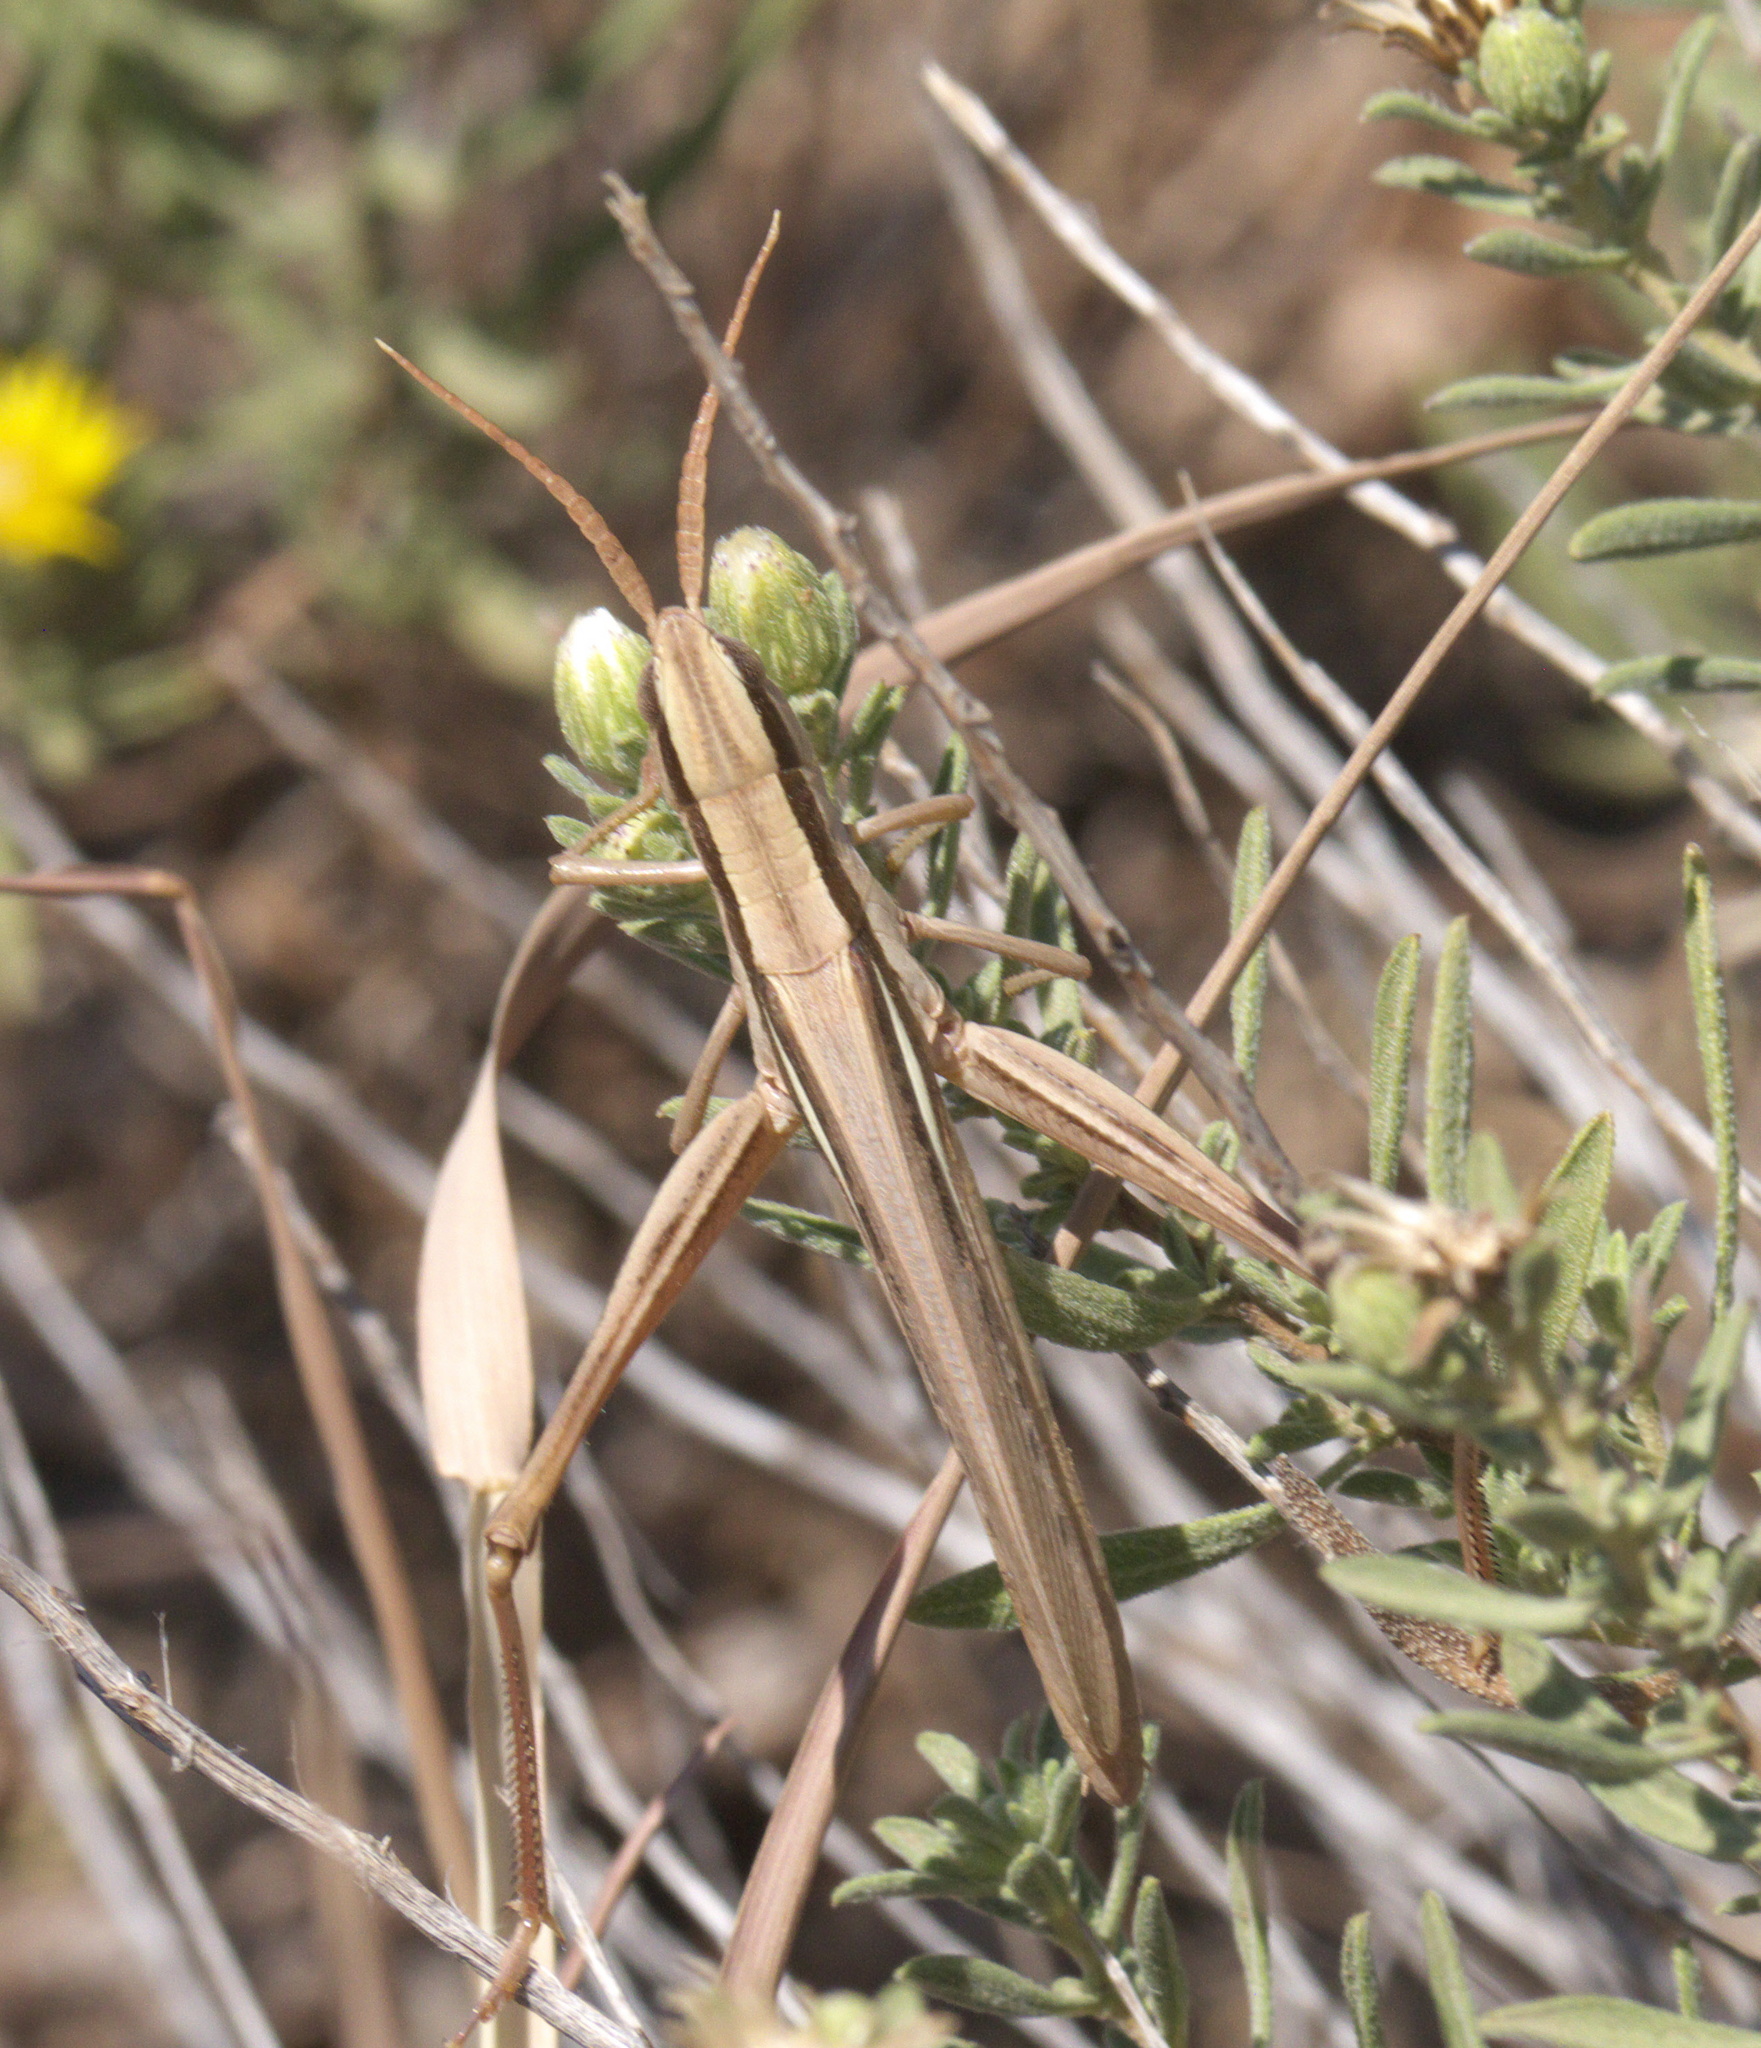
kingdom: Animalia
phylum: Arthropoda
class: Insecta
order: Orthoptera
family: Acrididae
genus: Mermiria
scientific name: Mermiria bivittata
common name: Two-striped mermiria grasshopper
